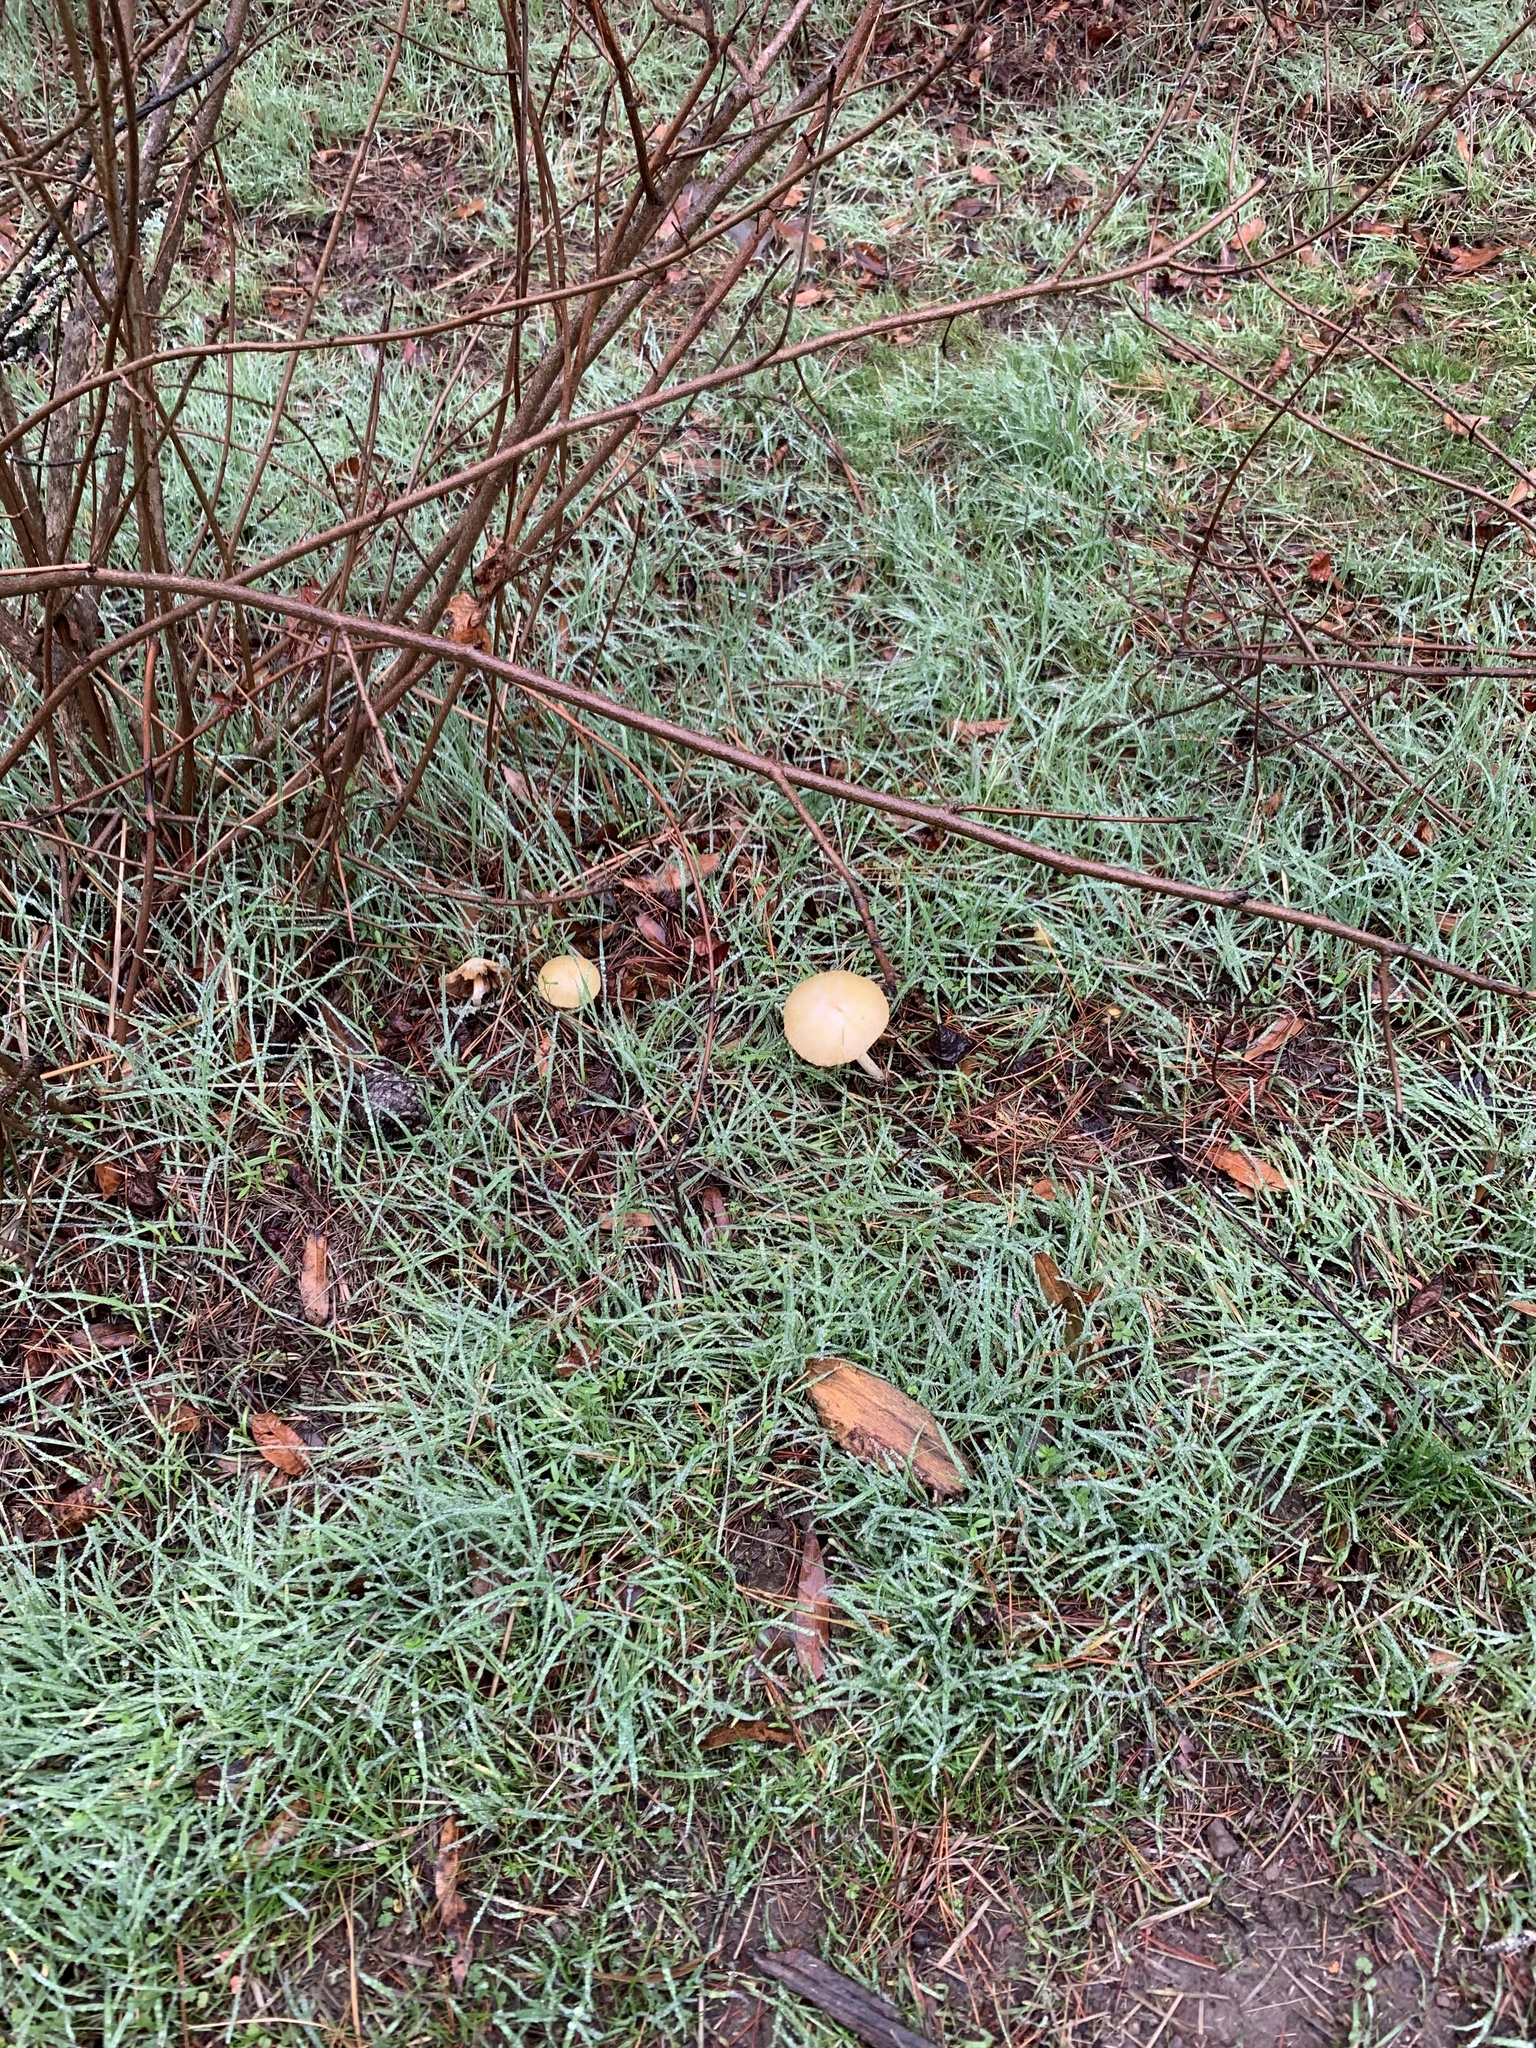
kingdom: Fungi
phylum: Basidiomycota
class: Agaricomycetes
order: Agaricales
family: Bolbitiaceae
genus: Bolbitius
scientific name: Bolbitius titubans
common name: Yellow fieldcap
